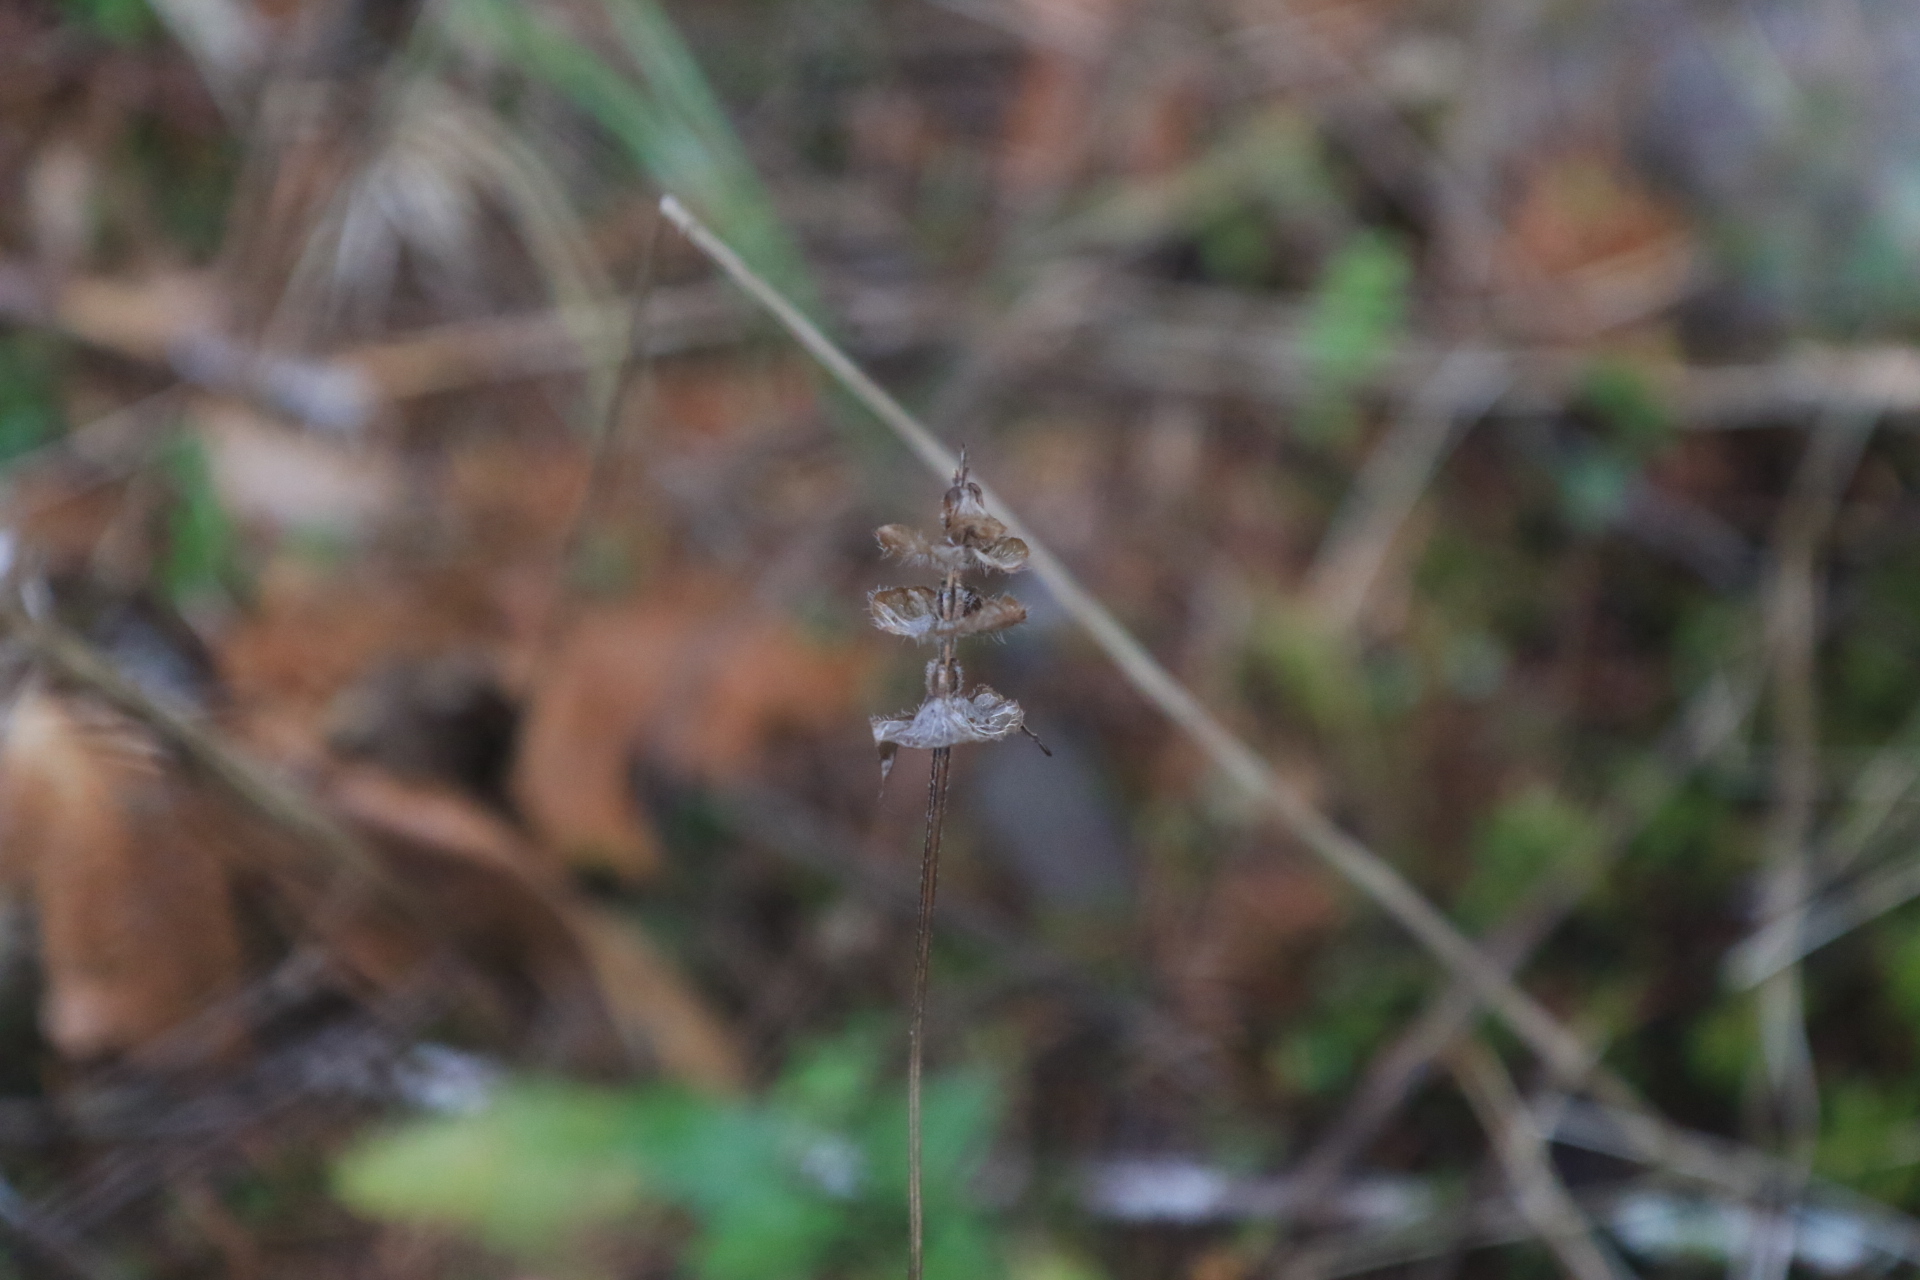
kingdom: Plantae
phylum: Tracheophyta
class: Magnoliopsida
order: Lamiales
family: Lamiaceae
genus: Prunella
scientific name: Prunella vulgaris
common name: Heal-all
